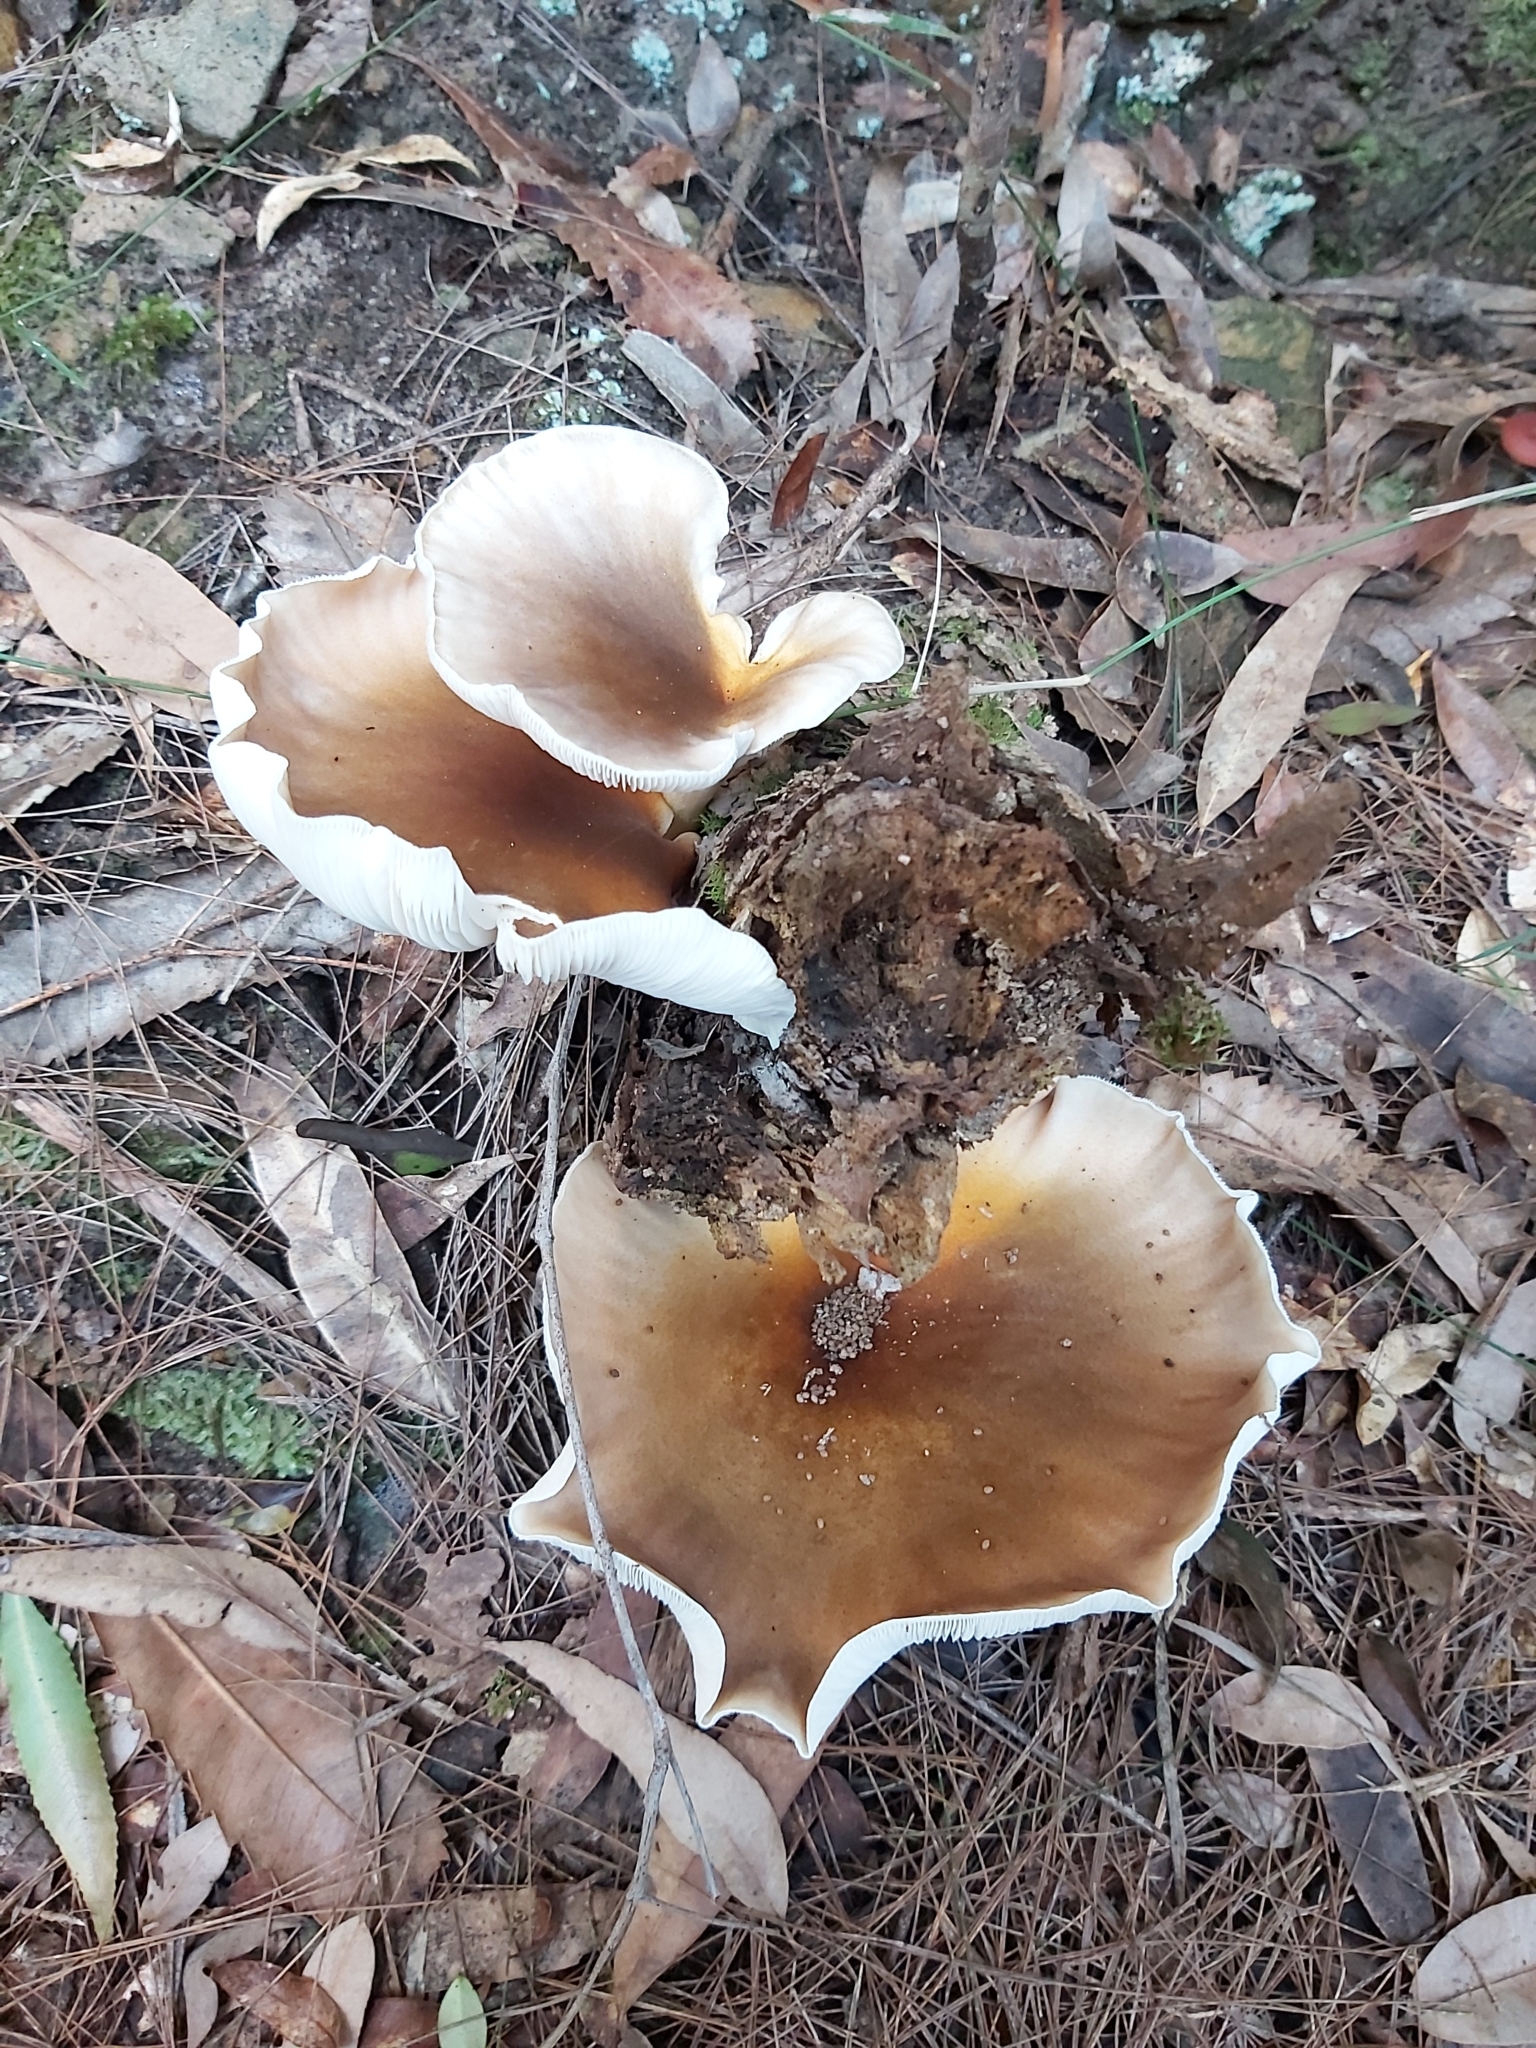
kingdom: Fungi
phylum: Basidiomycota
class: Agaricomycetes
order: Agaricales
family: Omphalotaceae
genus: Omphalotus
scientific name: Omphalotus nidiformis
